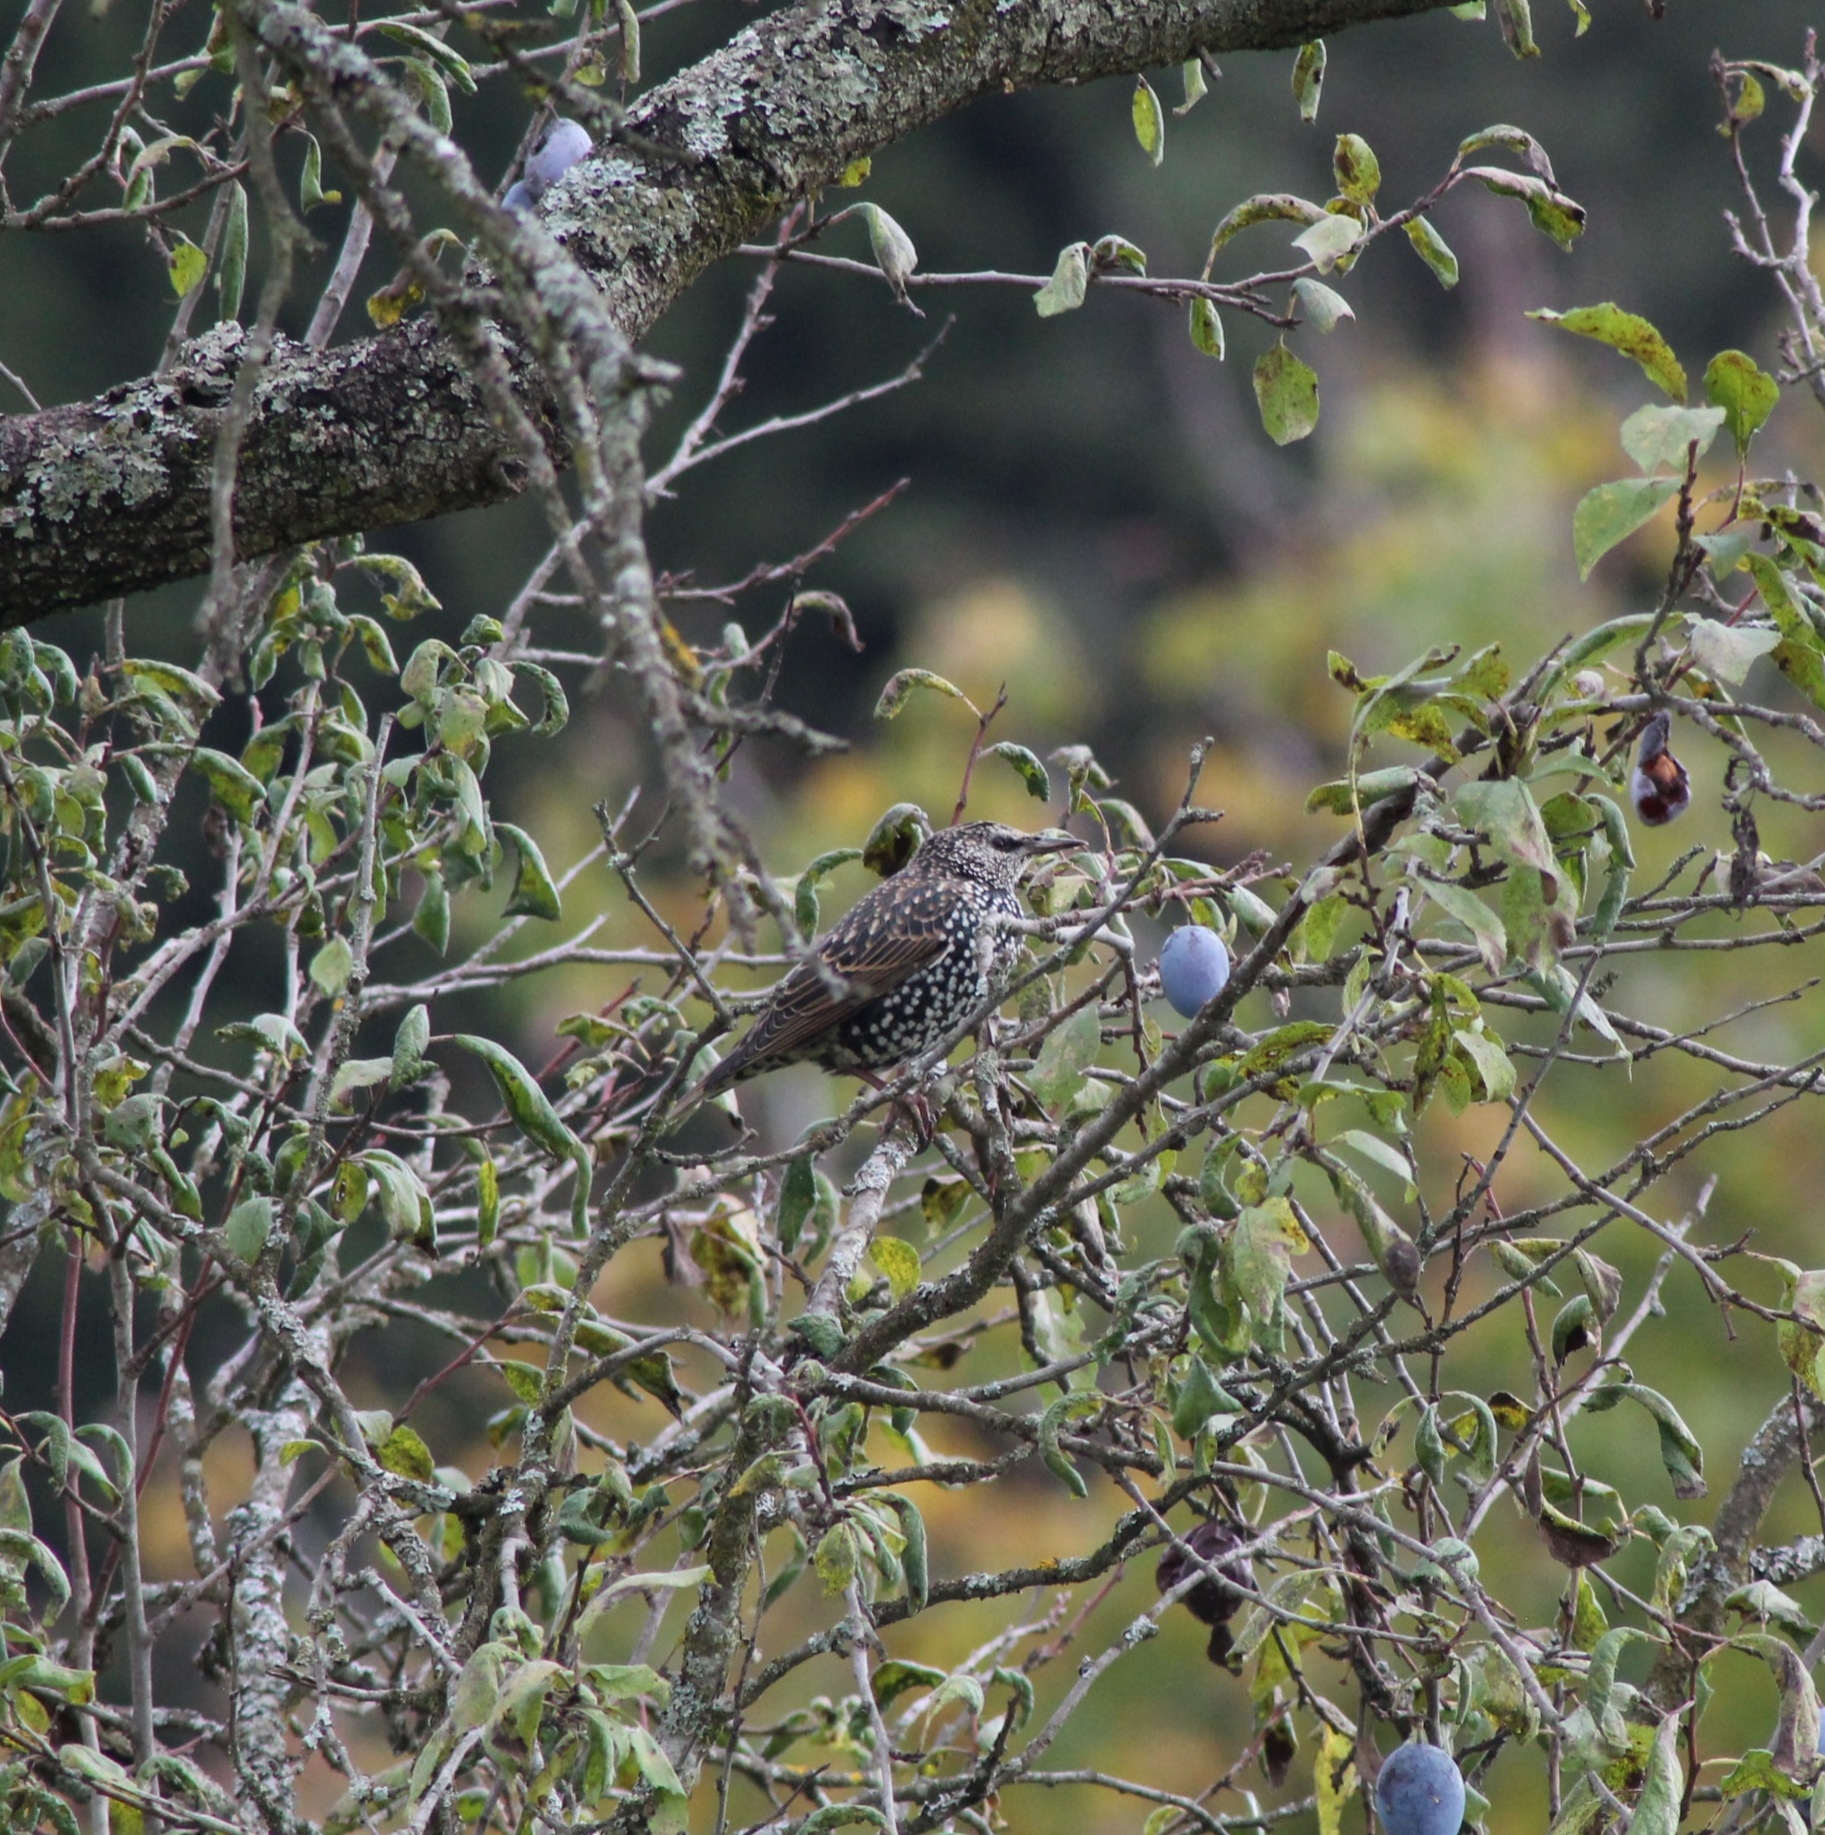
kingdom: Animalia
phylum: Chordata
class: Aves
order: Passeriformes
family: Sturnidae
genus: Sturnus
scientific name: Sturnus vulgaris
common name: Common starling
